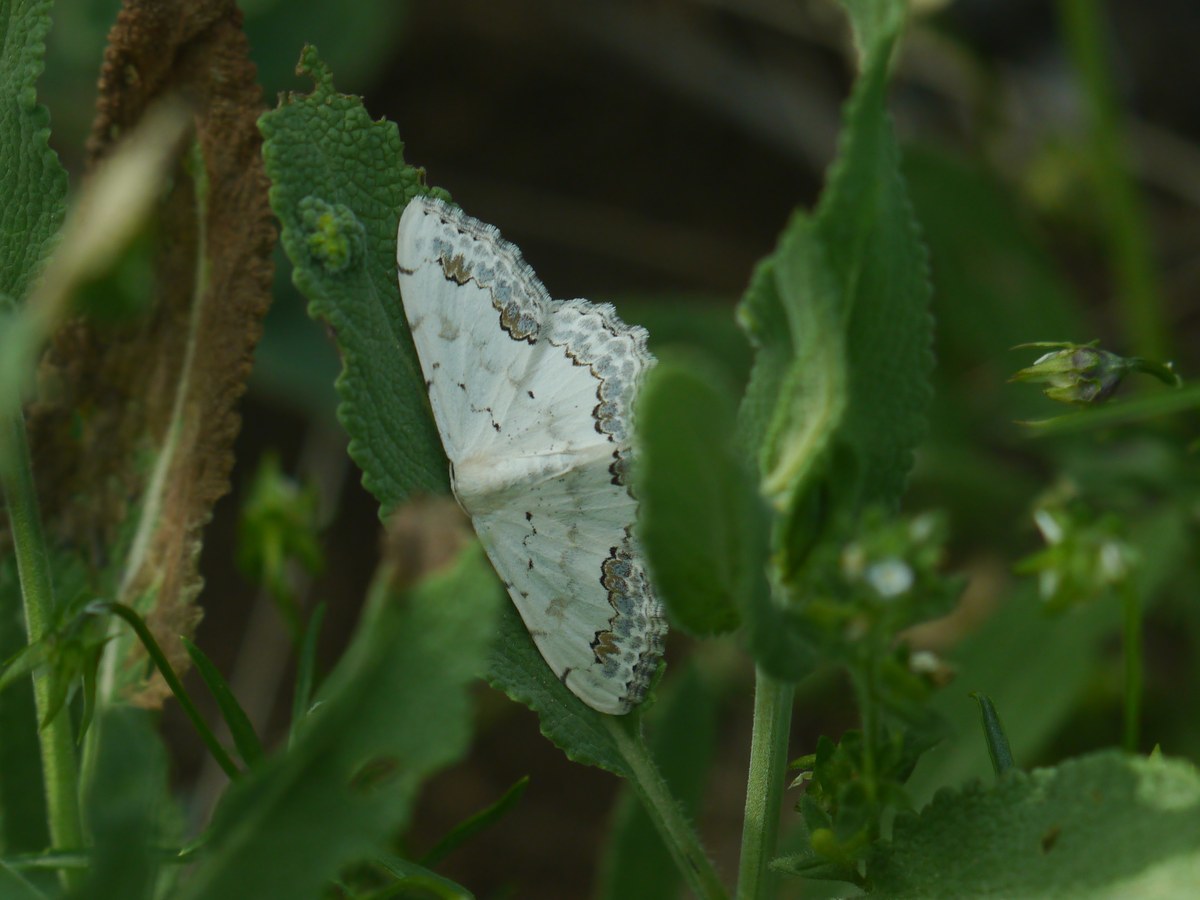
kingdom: Animalia
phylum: Arthropoda
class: Insecta
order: Lepidoptera
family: Geometridae
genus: Scopula
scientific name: Scopula orientalis
